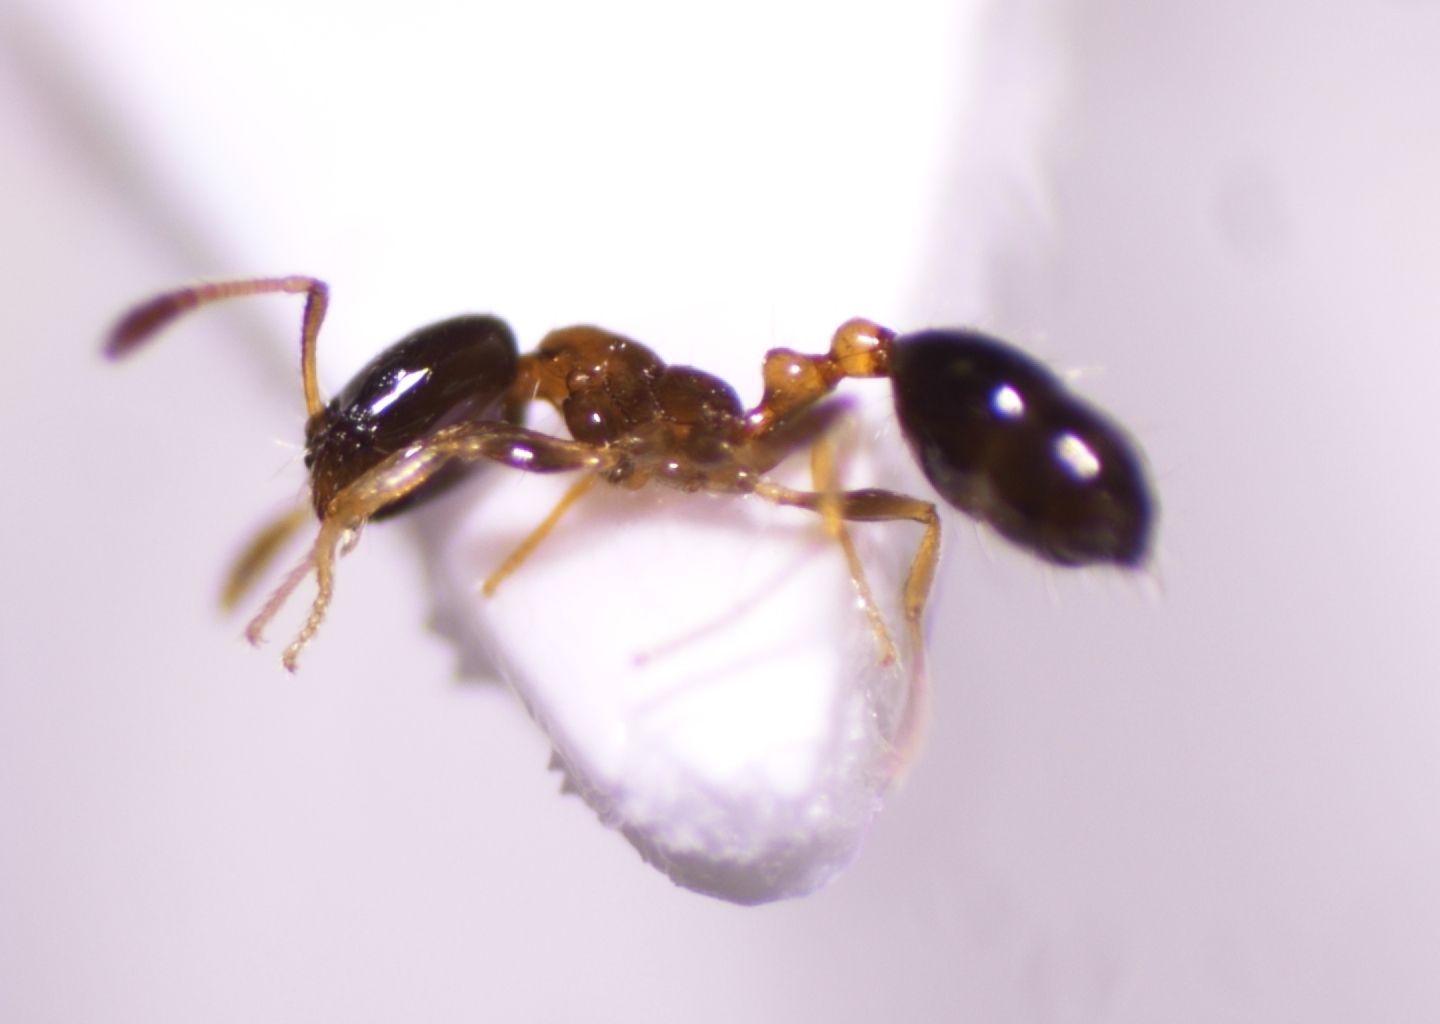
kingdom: Animalia
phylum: Arthropoda
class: Insecta
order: Hymenoptera
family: Formicidae
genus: Monomorium
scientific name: Monomorium floricola
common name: Bicolored trailing ant
